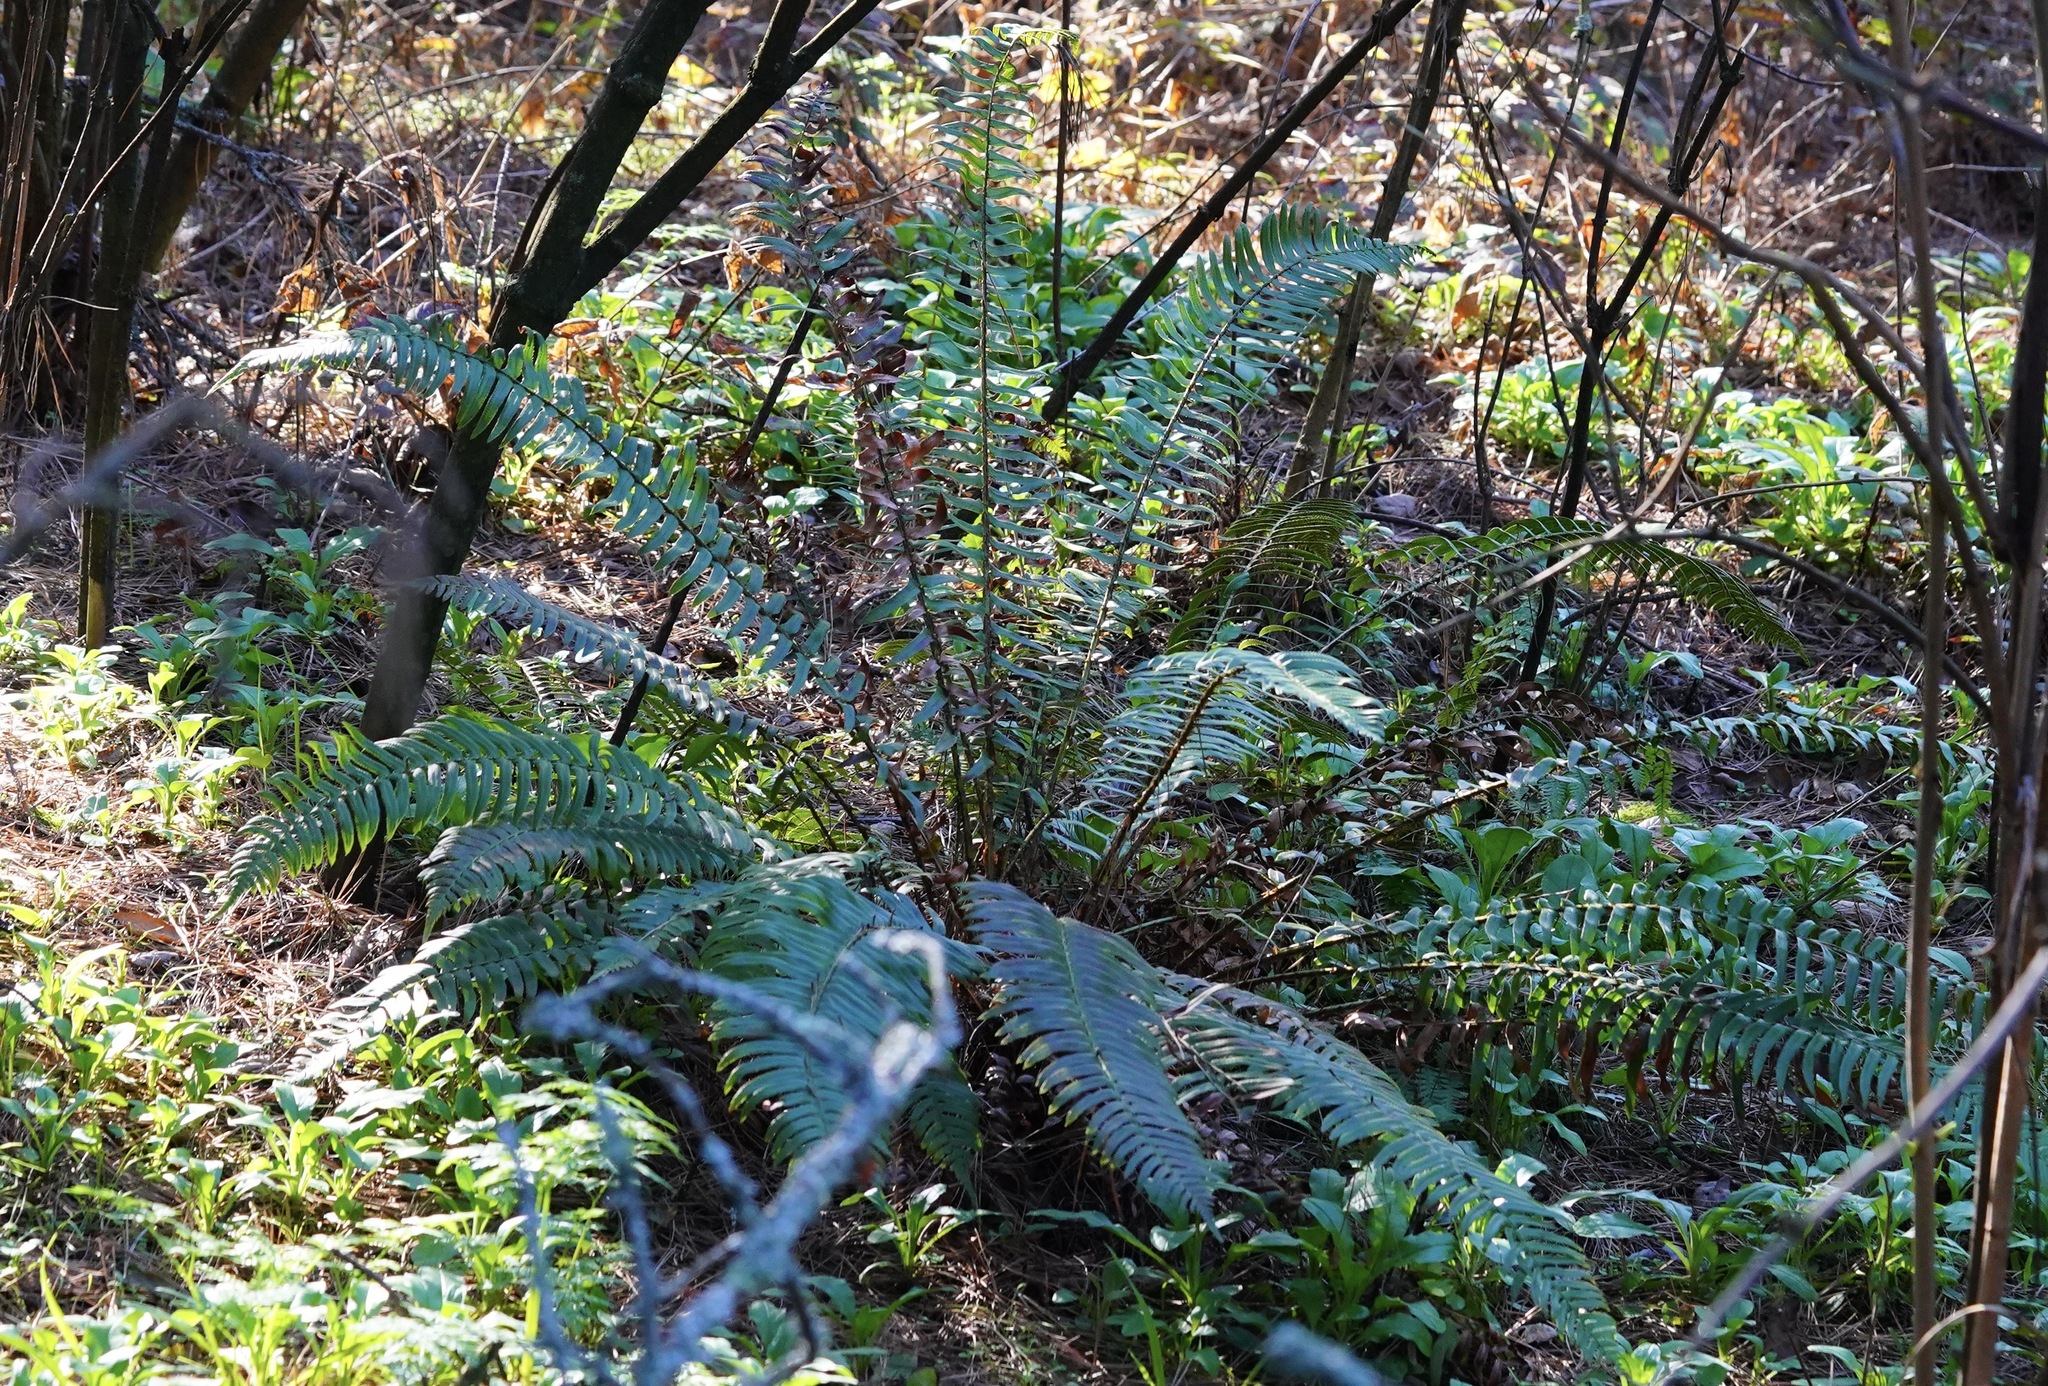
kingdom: Plantae
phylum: Tracheophyta
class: Polypodiopsida
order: Polypodiales
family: Dryopteridaceae
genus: Polystichum
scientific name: Polystichum munitum
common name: Western sword-fern
